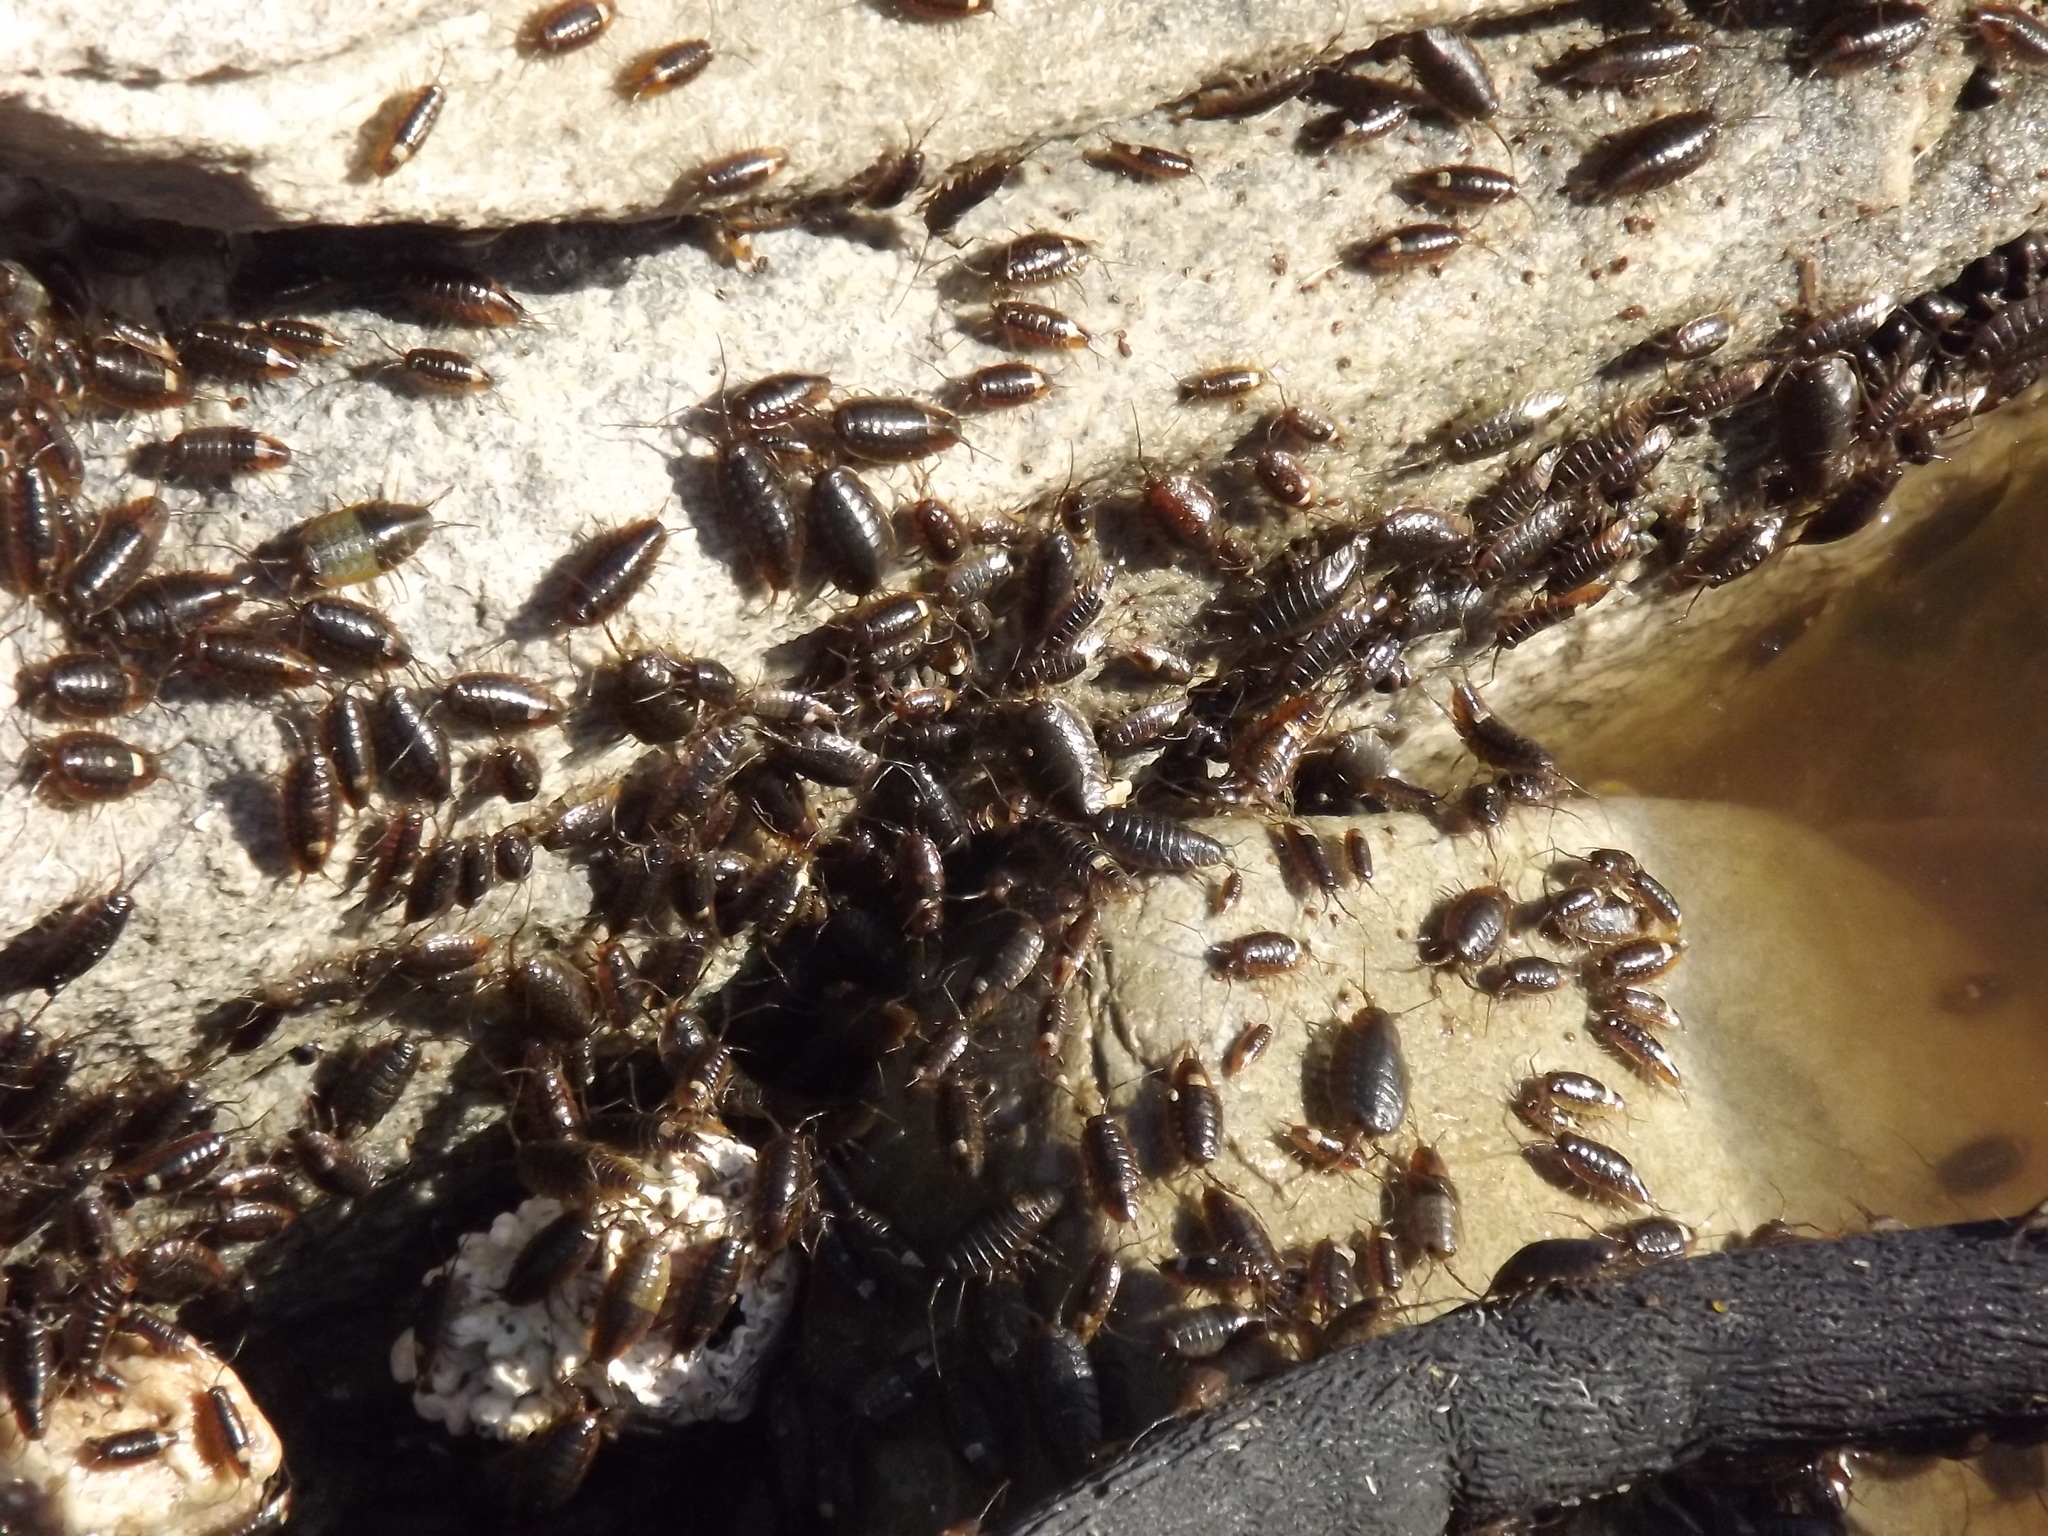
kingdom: Animalia
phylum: Arthropoda
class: Malacostraca
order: Isopoda
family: Ligiidae
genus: Ligia
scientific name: Ligia glabrata
